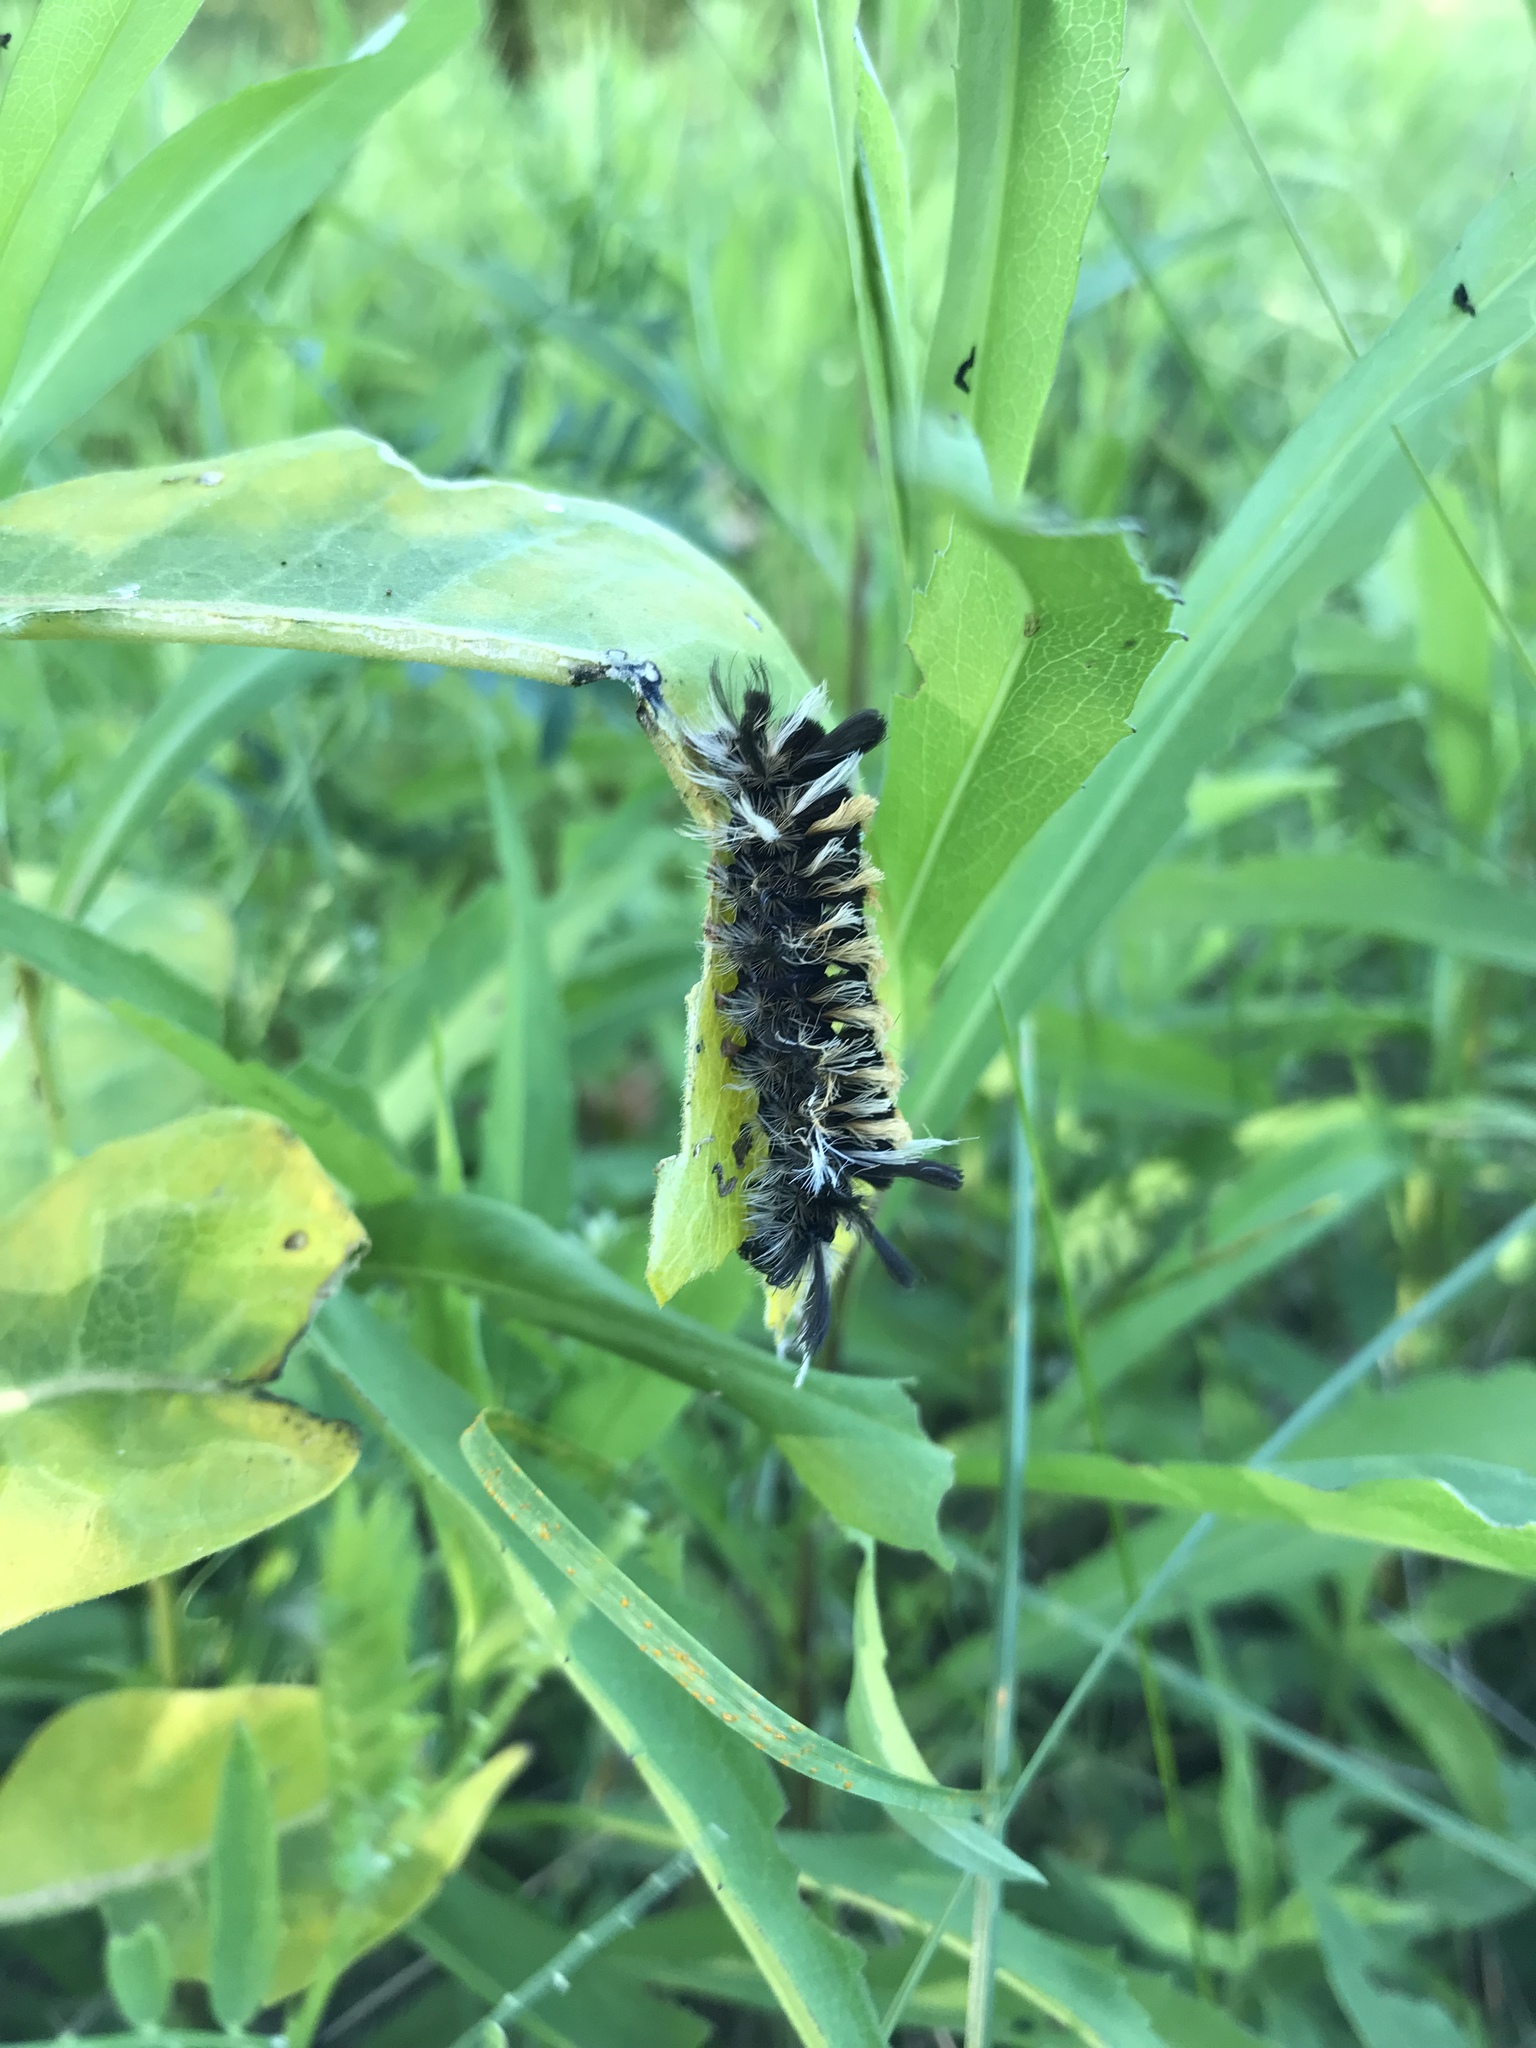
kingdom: Animalia
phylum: Arthropoda
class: Insecta
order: Lepidoptera
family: Erebidae
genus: Euchaetes
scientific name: Euchaetes egle
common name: Milkweed tussock moth
